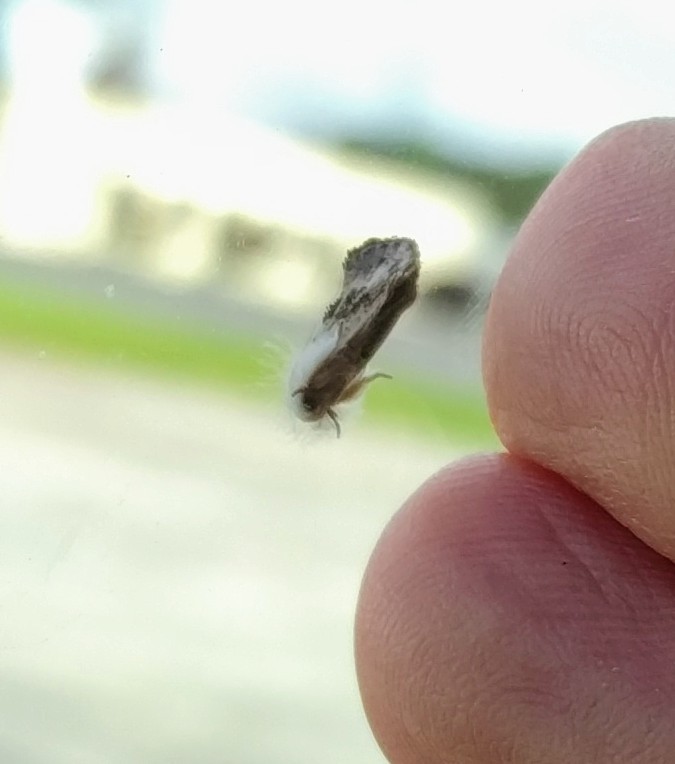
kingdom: Animalia
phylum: Arthropoda
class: Insecta
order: Lepidoptera
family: Tineidae
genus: Acrolophus
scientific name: Acrolophus mycetophagus
